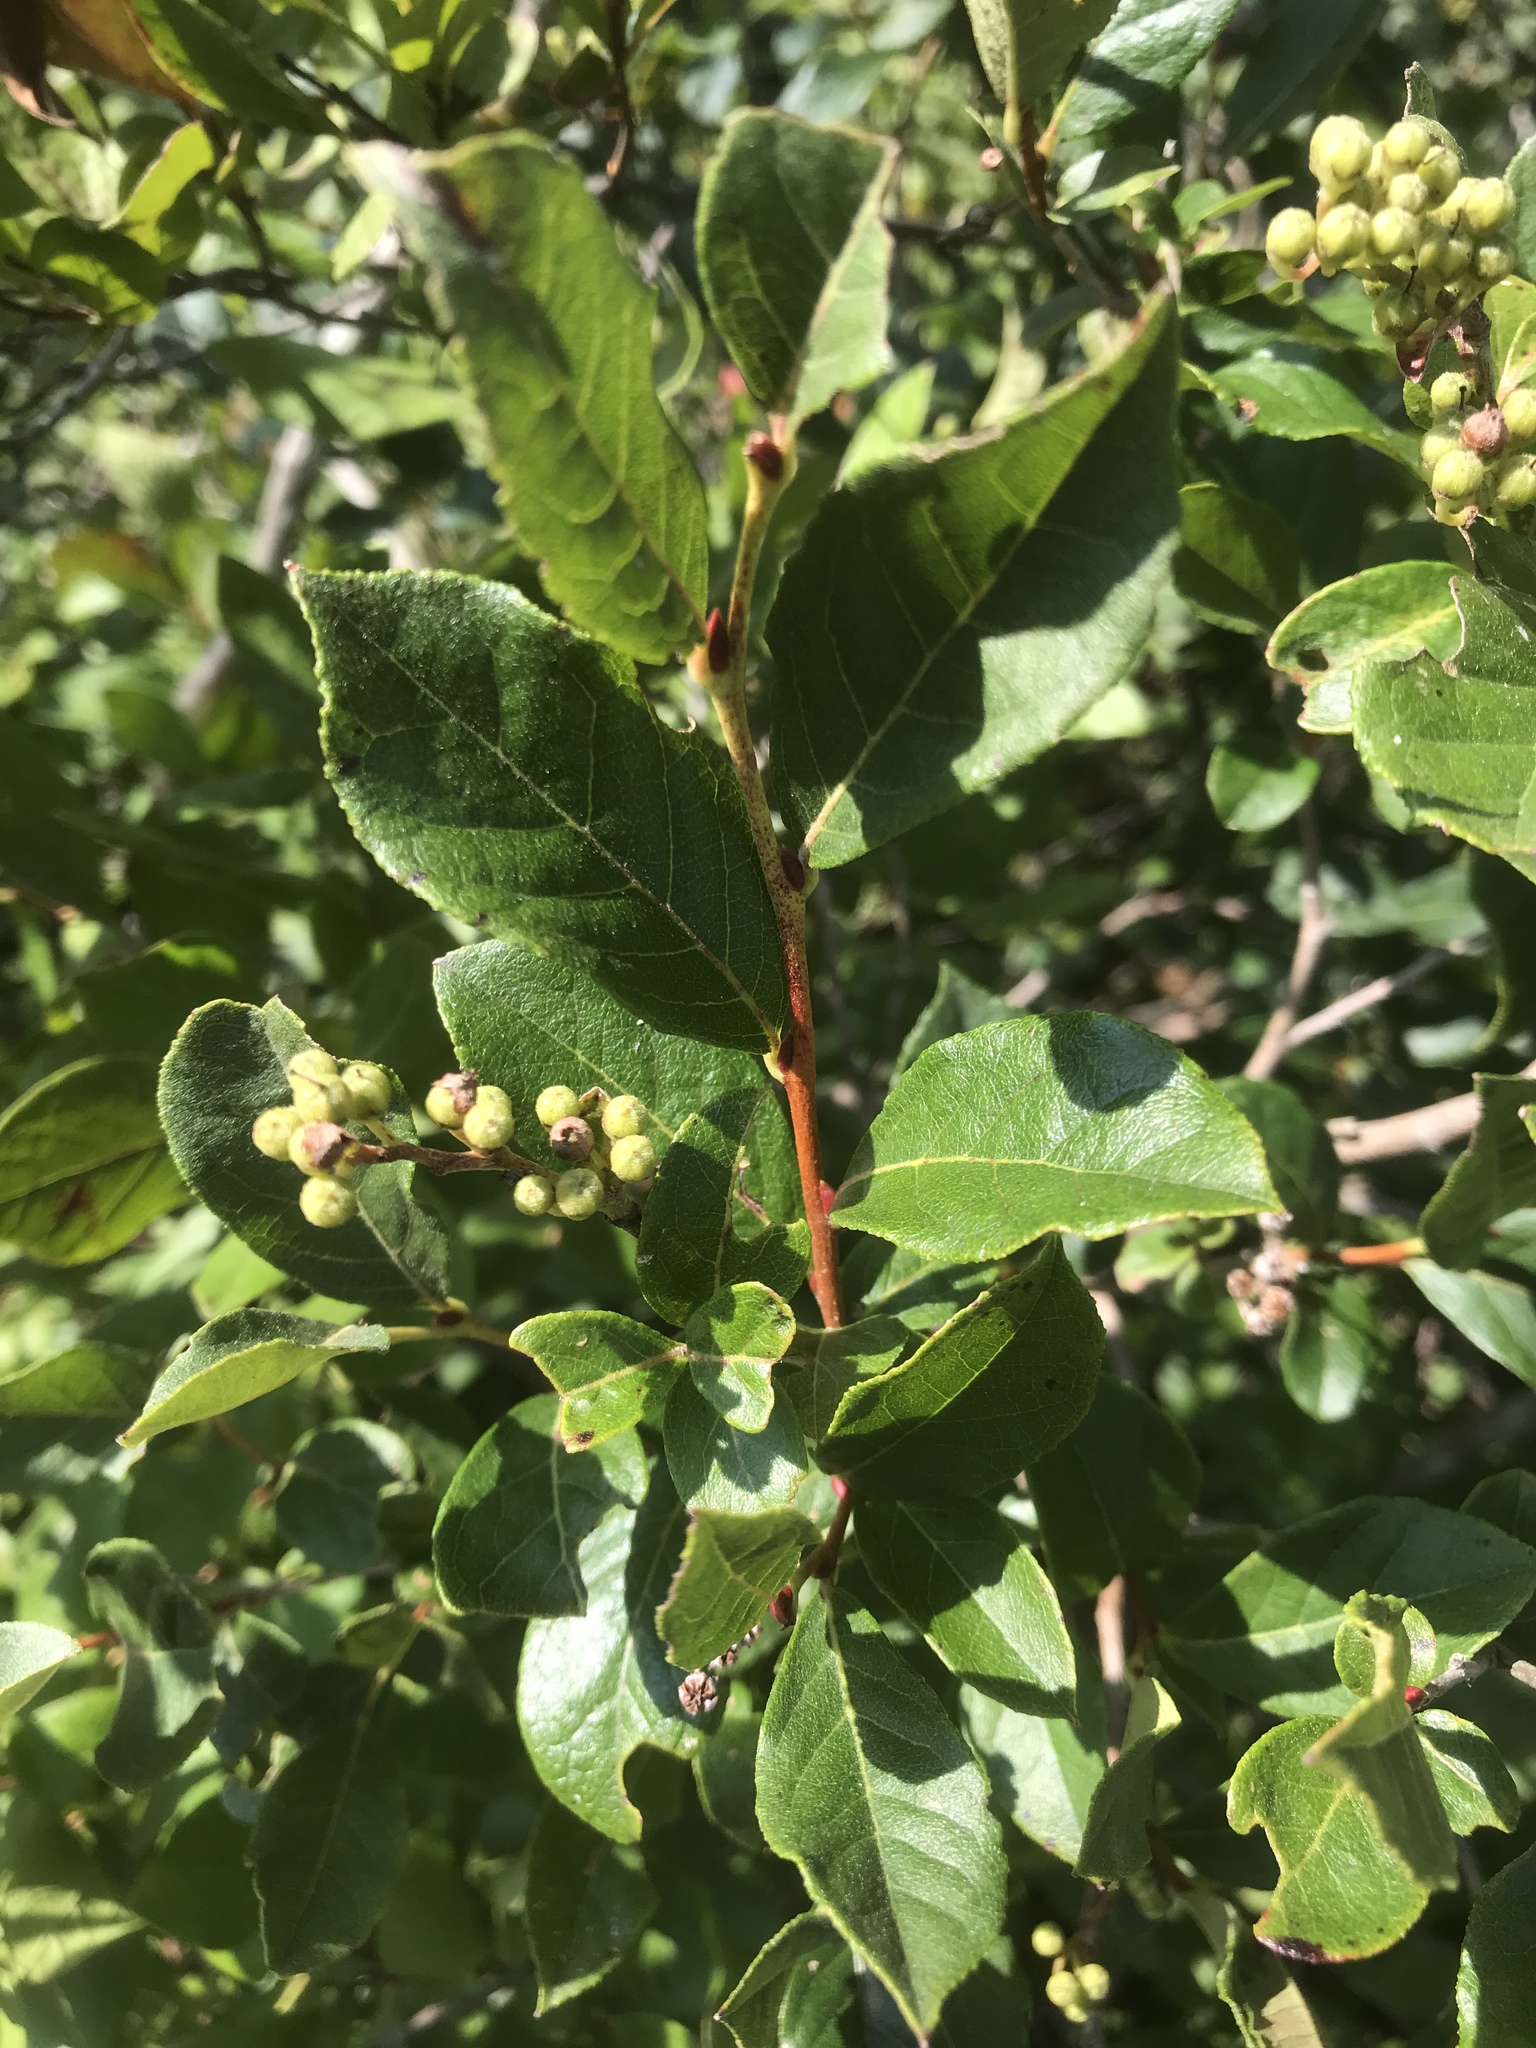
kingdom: Plantae
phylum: Tracheophyta
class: Magnoliopsida
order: Ericales
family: Ericaceae
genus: Lyonia
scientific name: Lyonia ligustrina
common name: Maleberry
